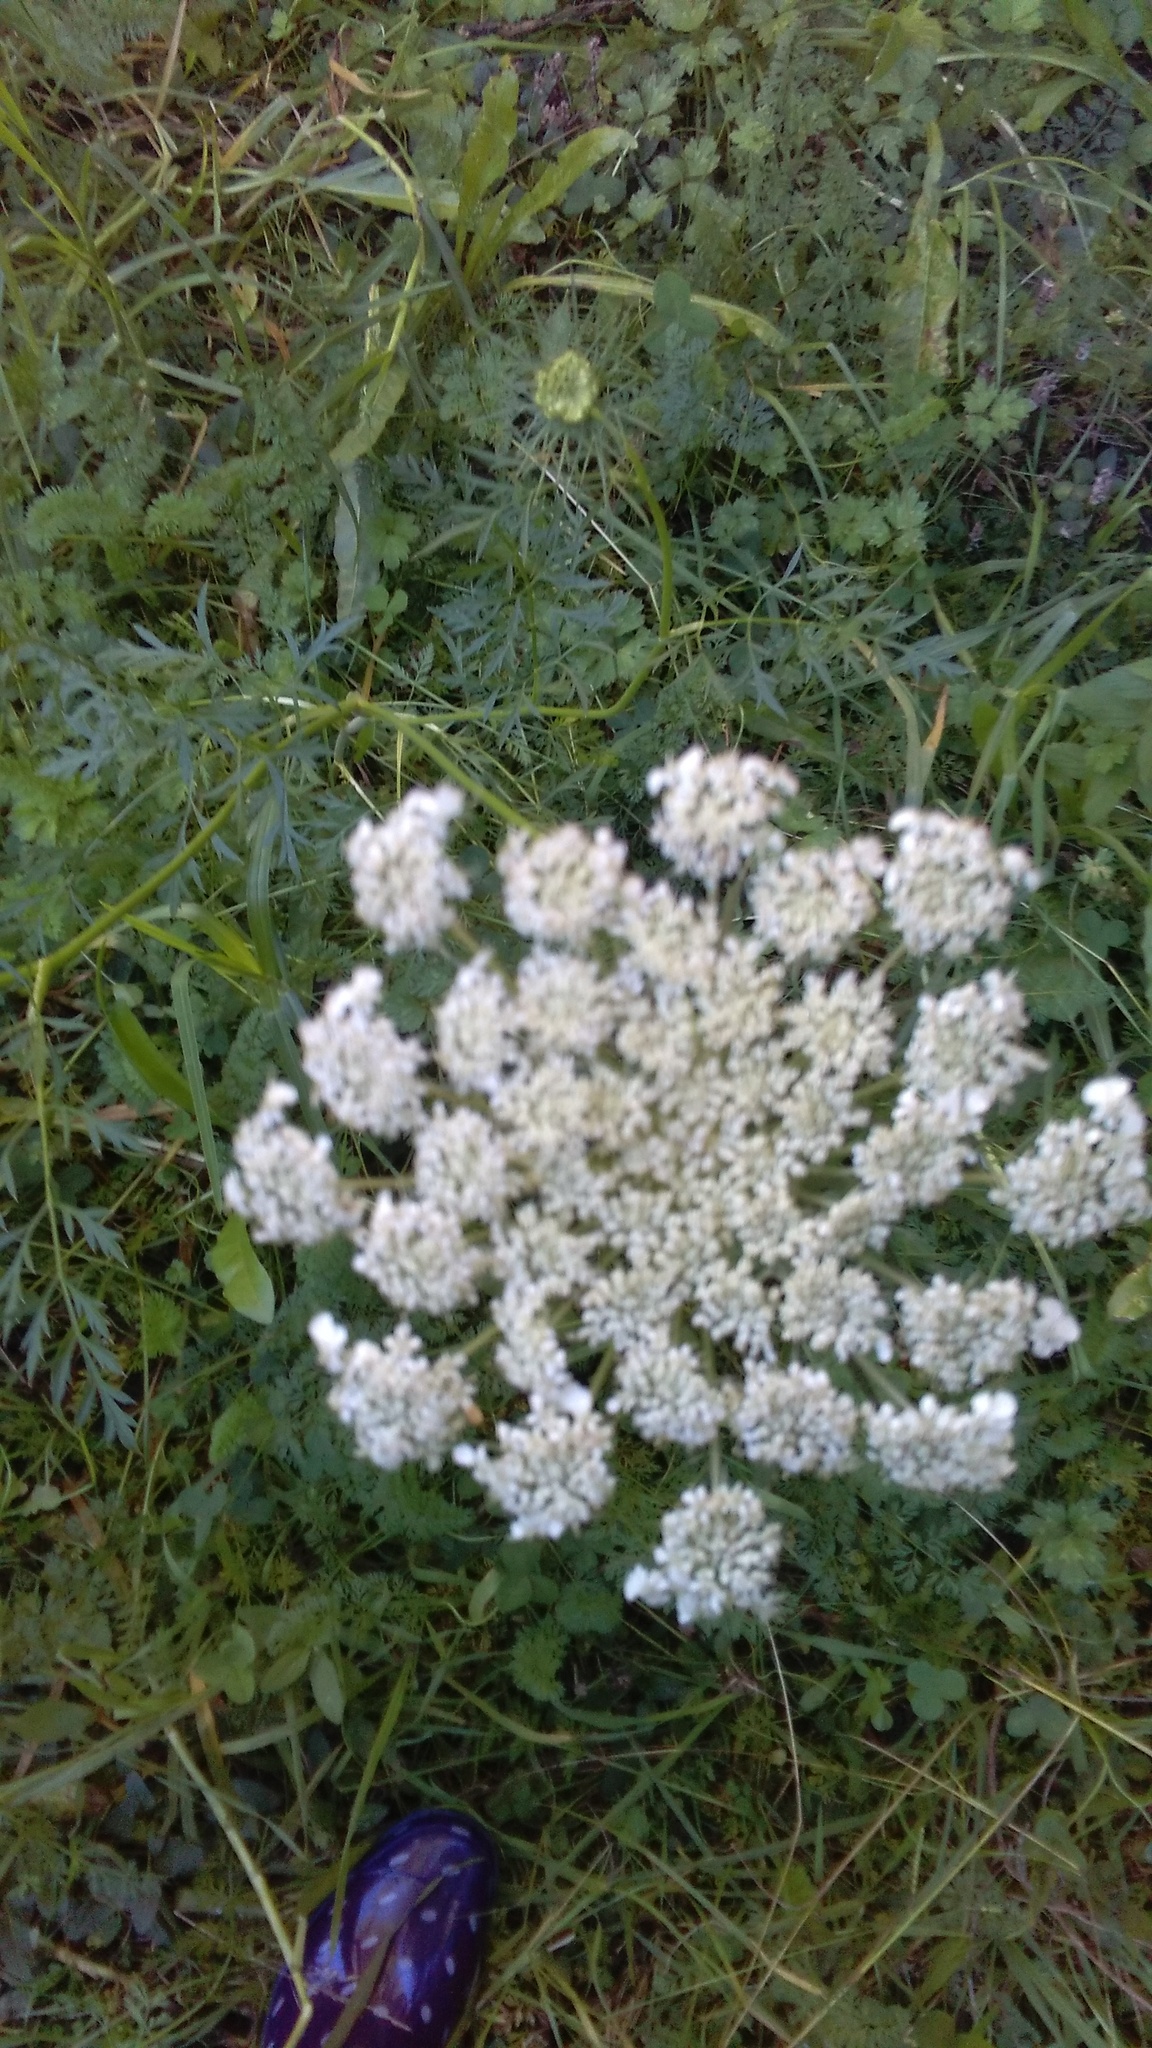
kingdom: Plantae
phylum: Tracheophyta
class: Magnoliopsida
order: Apiales
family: Apiaceae
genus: Daucus
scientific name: Daucus carota
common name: Wild carrot
